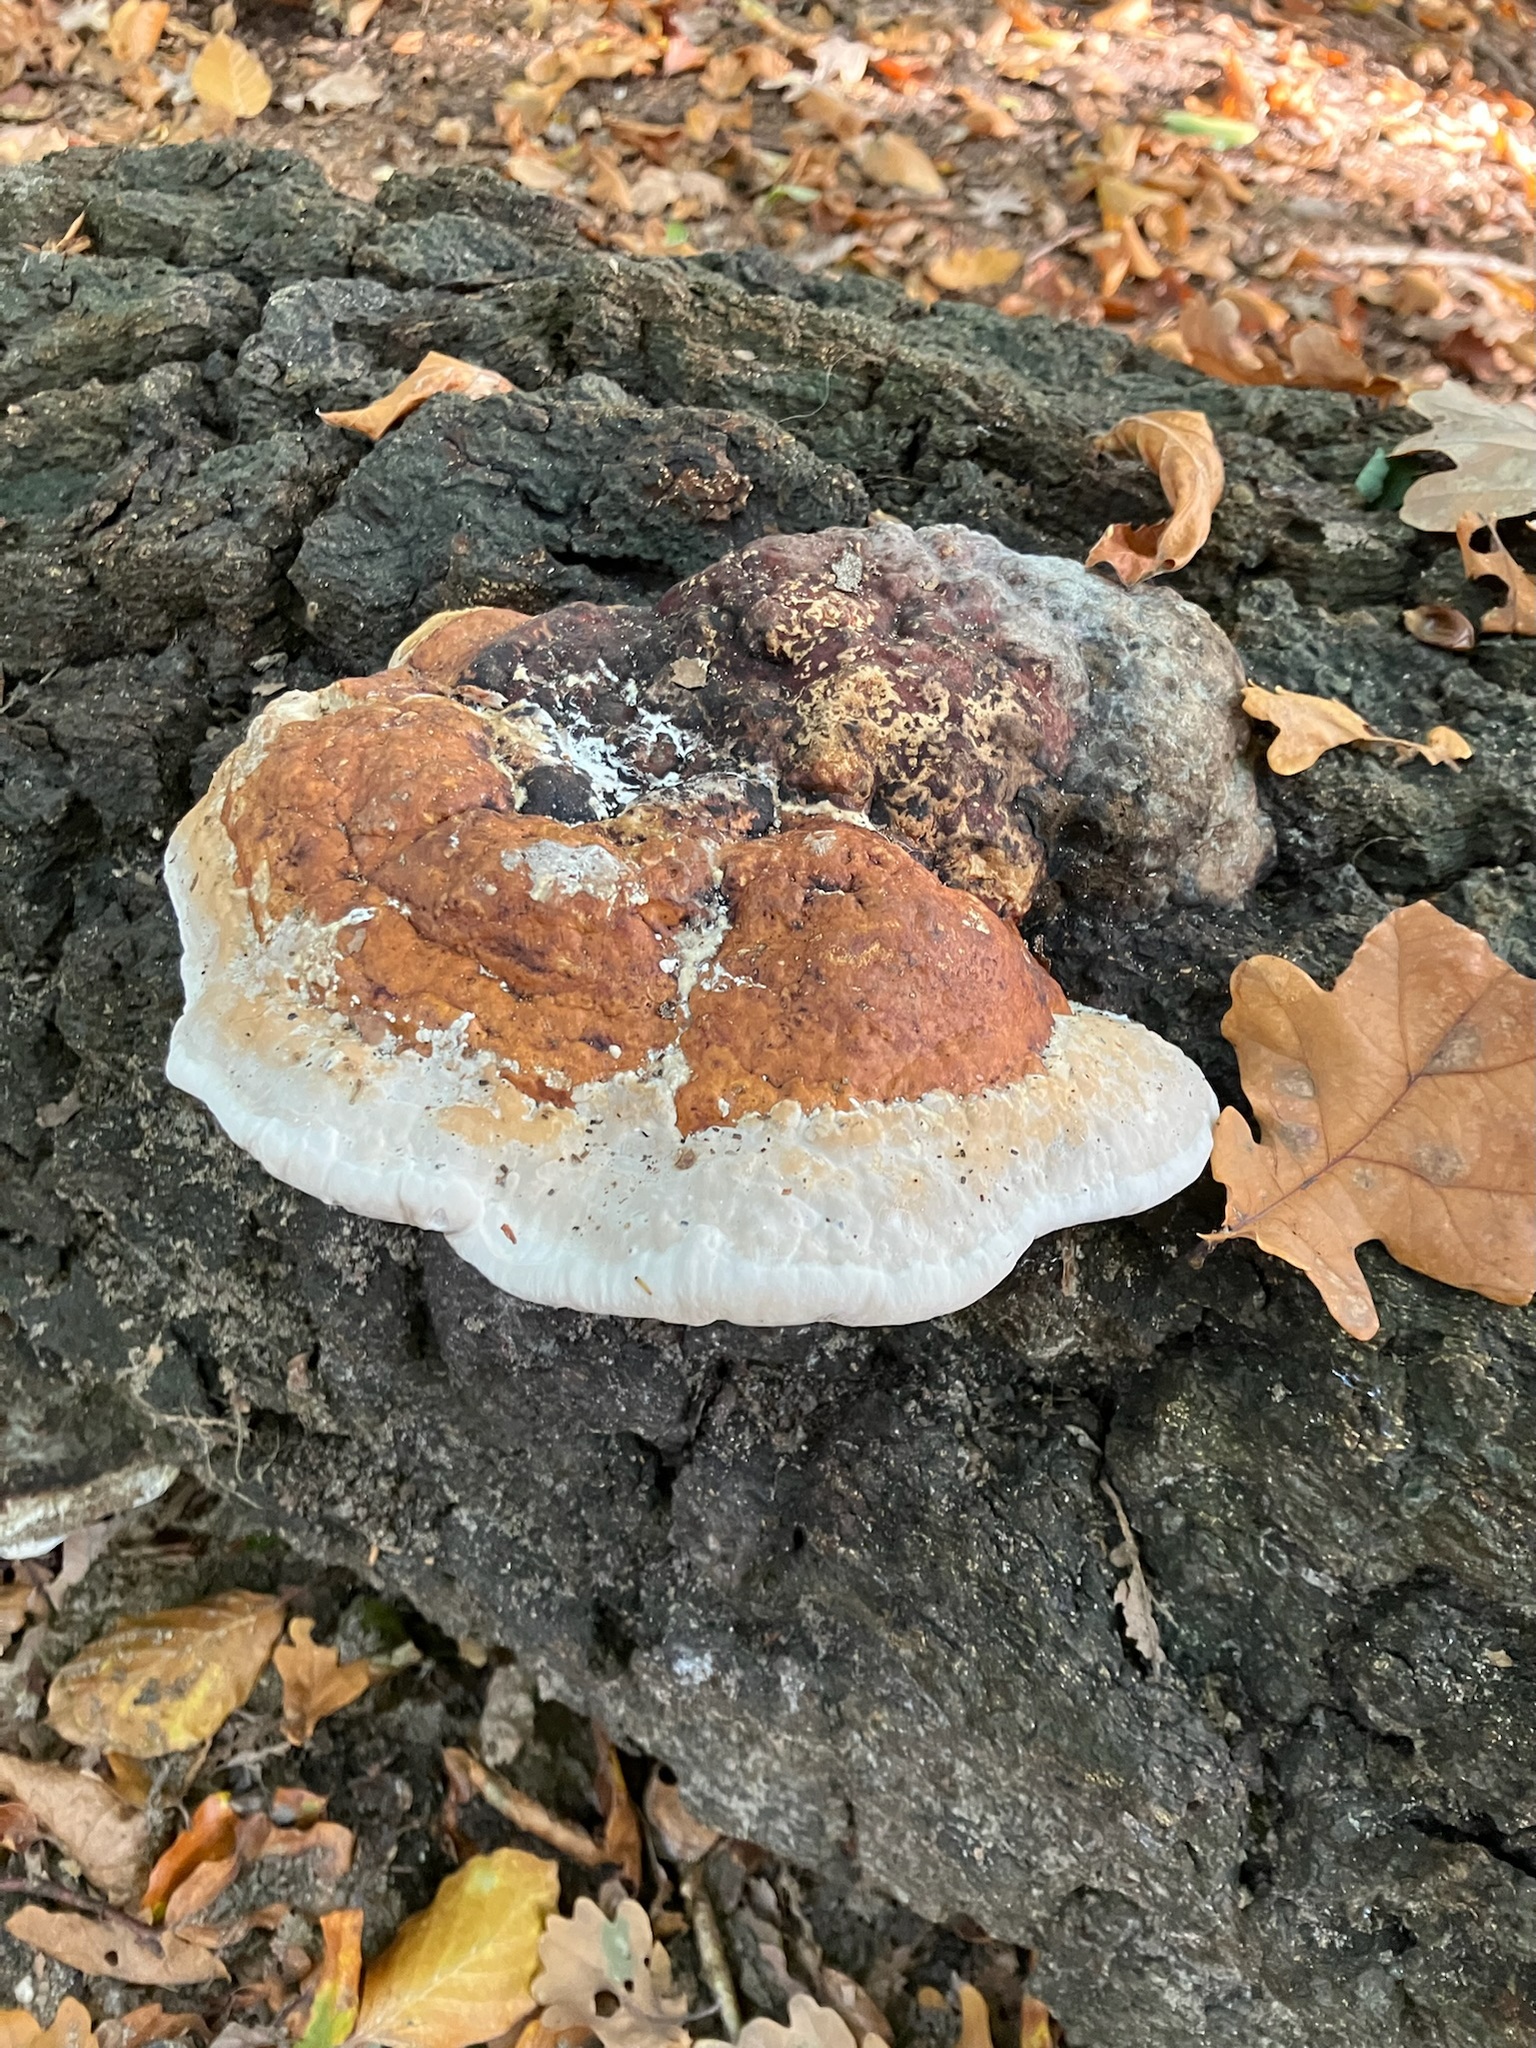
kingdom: Fungi
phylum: Basidiomycota
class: Agaricomycetes
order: Polyporales
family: Fomitopsidaceae
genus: Fomitopsis
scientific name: Fomitopsis pinicola
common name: Red-belted bracket
